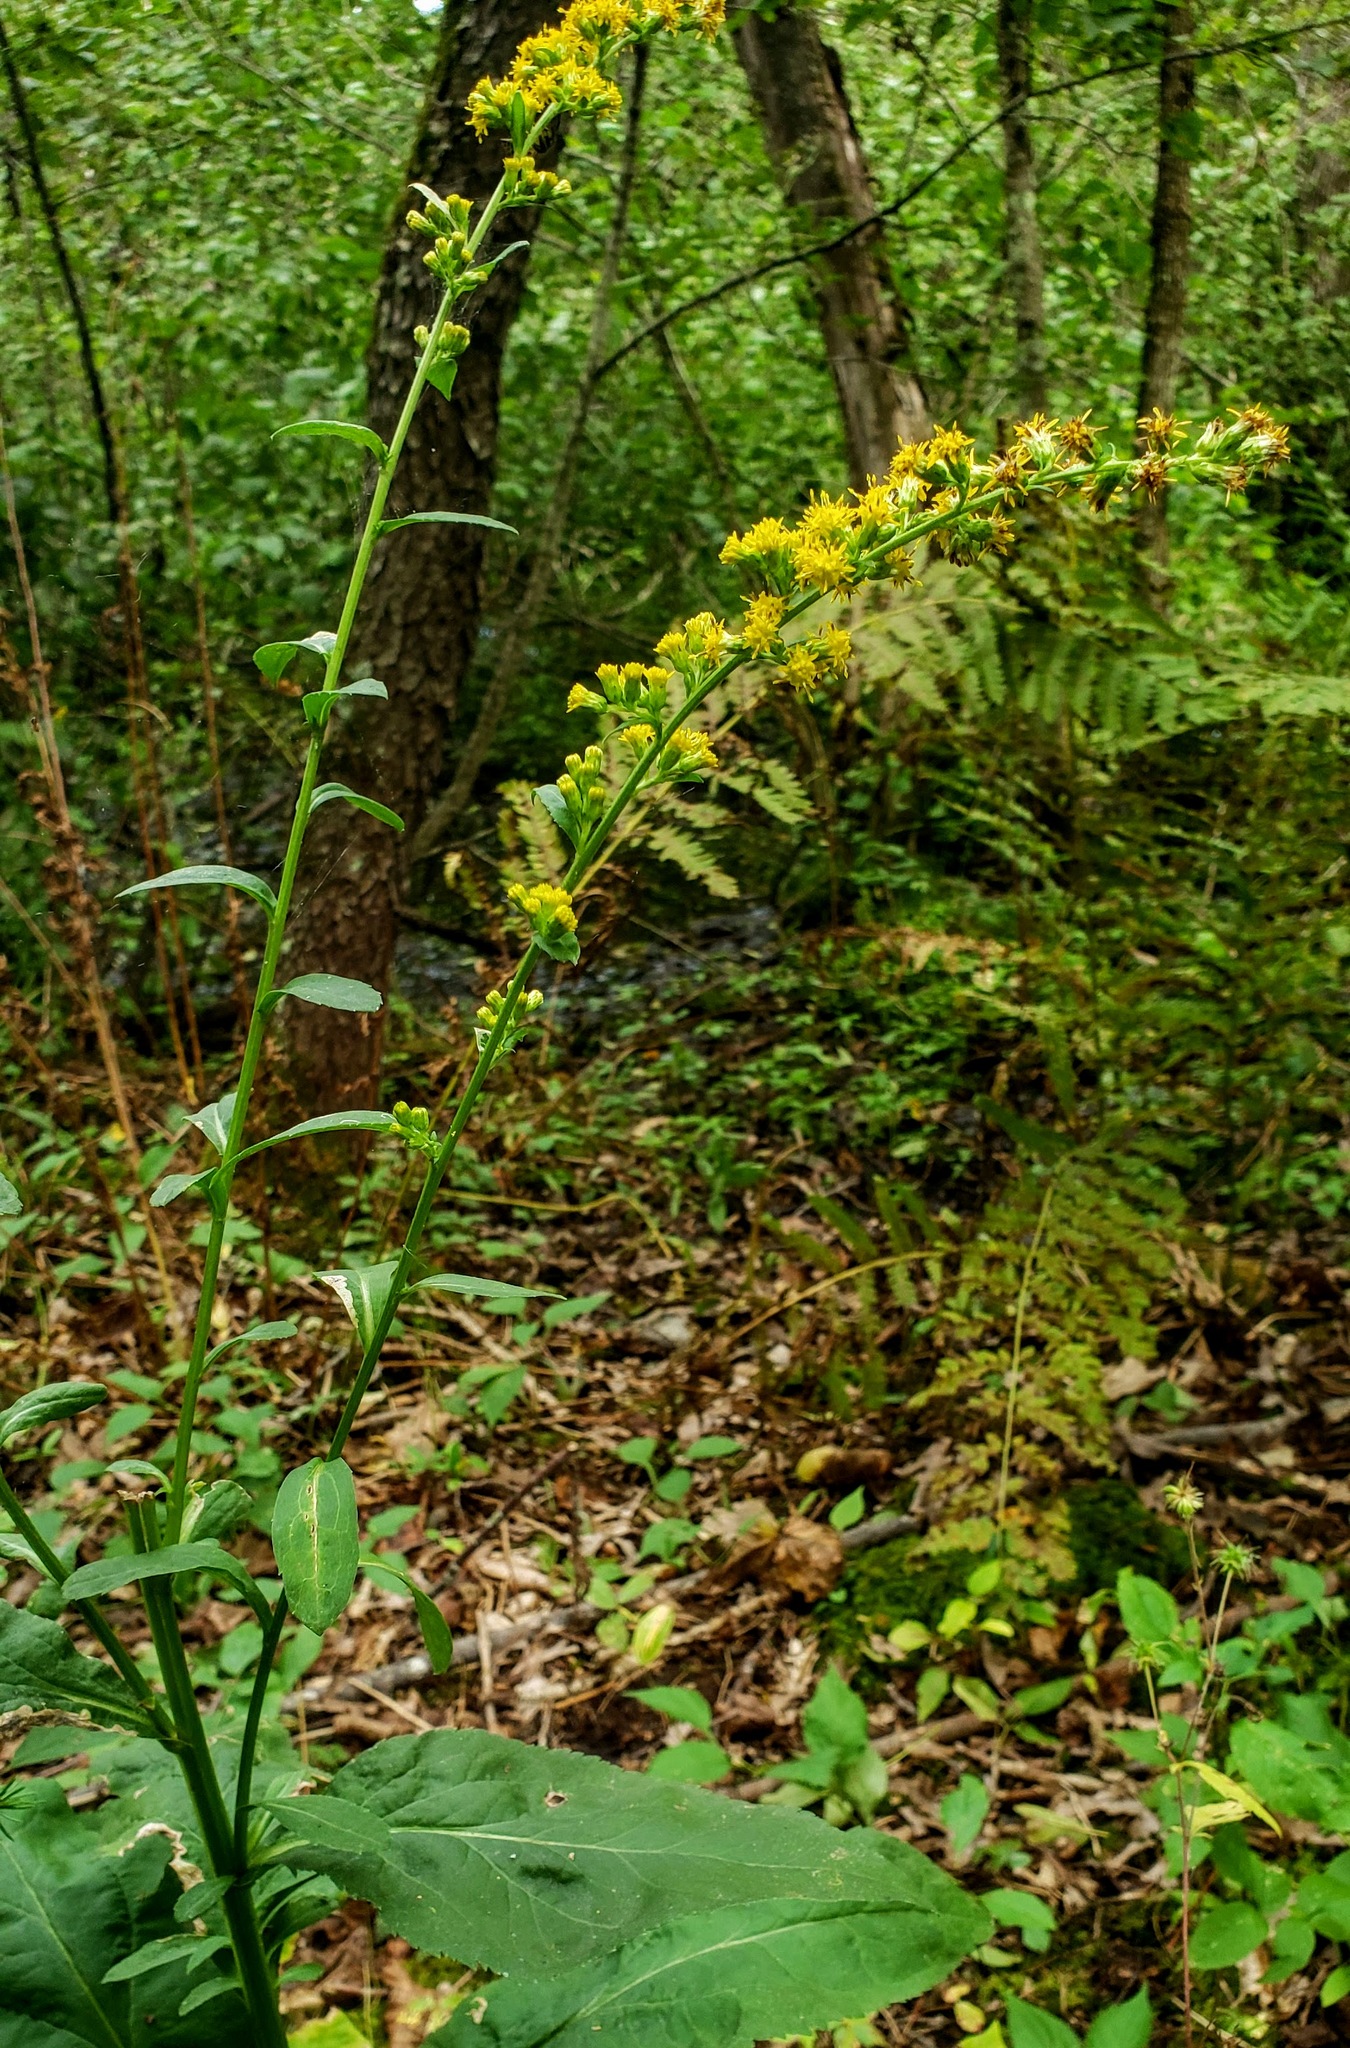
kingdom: Plantae
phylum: Tracheophyta
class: Magnoliopsida
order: Asterales
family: Asteraceae
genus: Solidago
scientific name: Solidago patula
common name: Rough-leaf goldenrod
